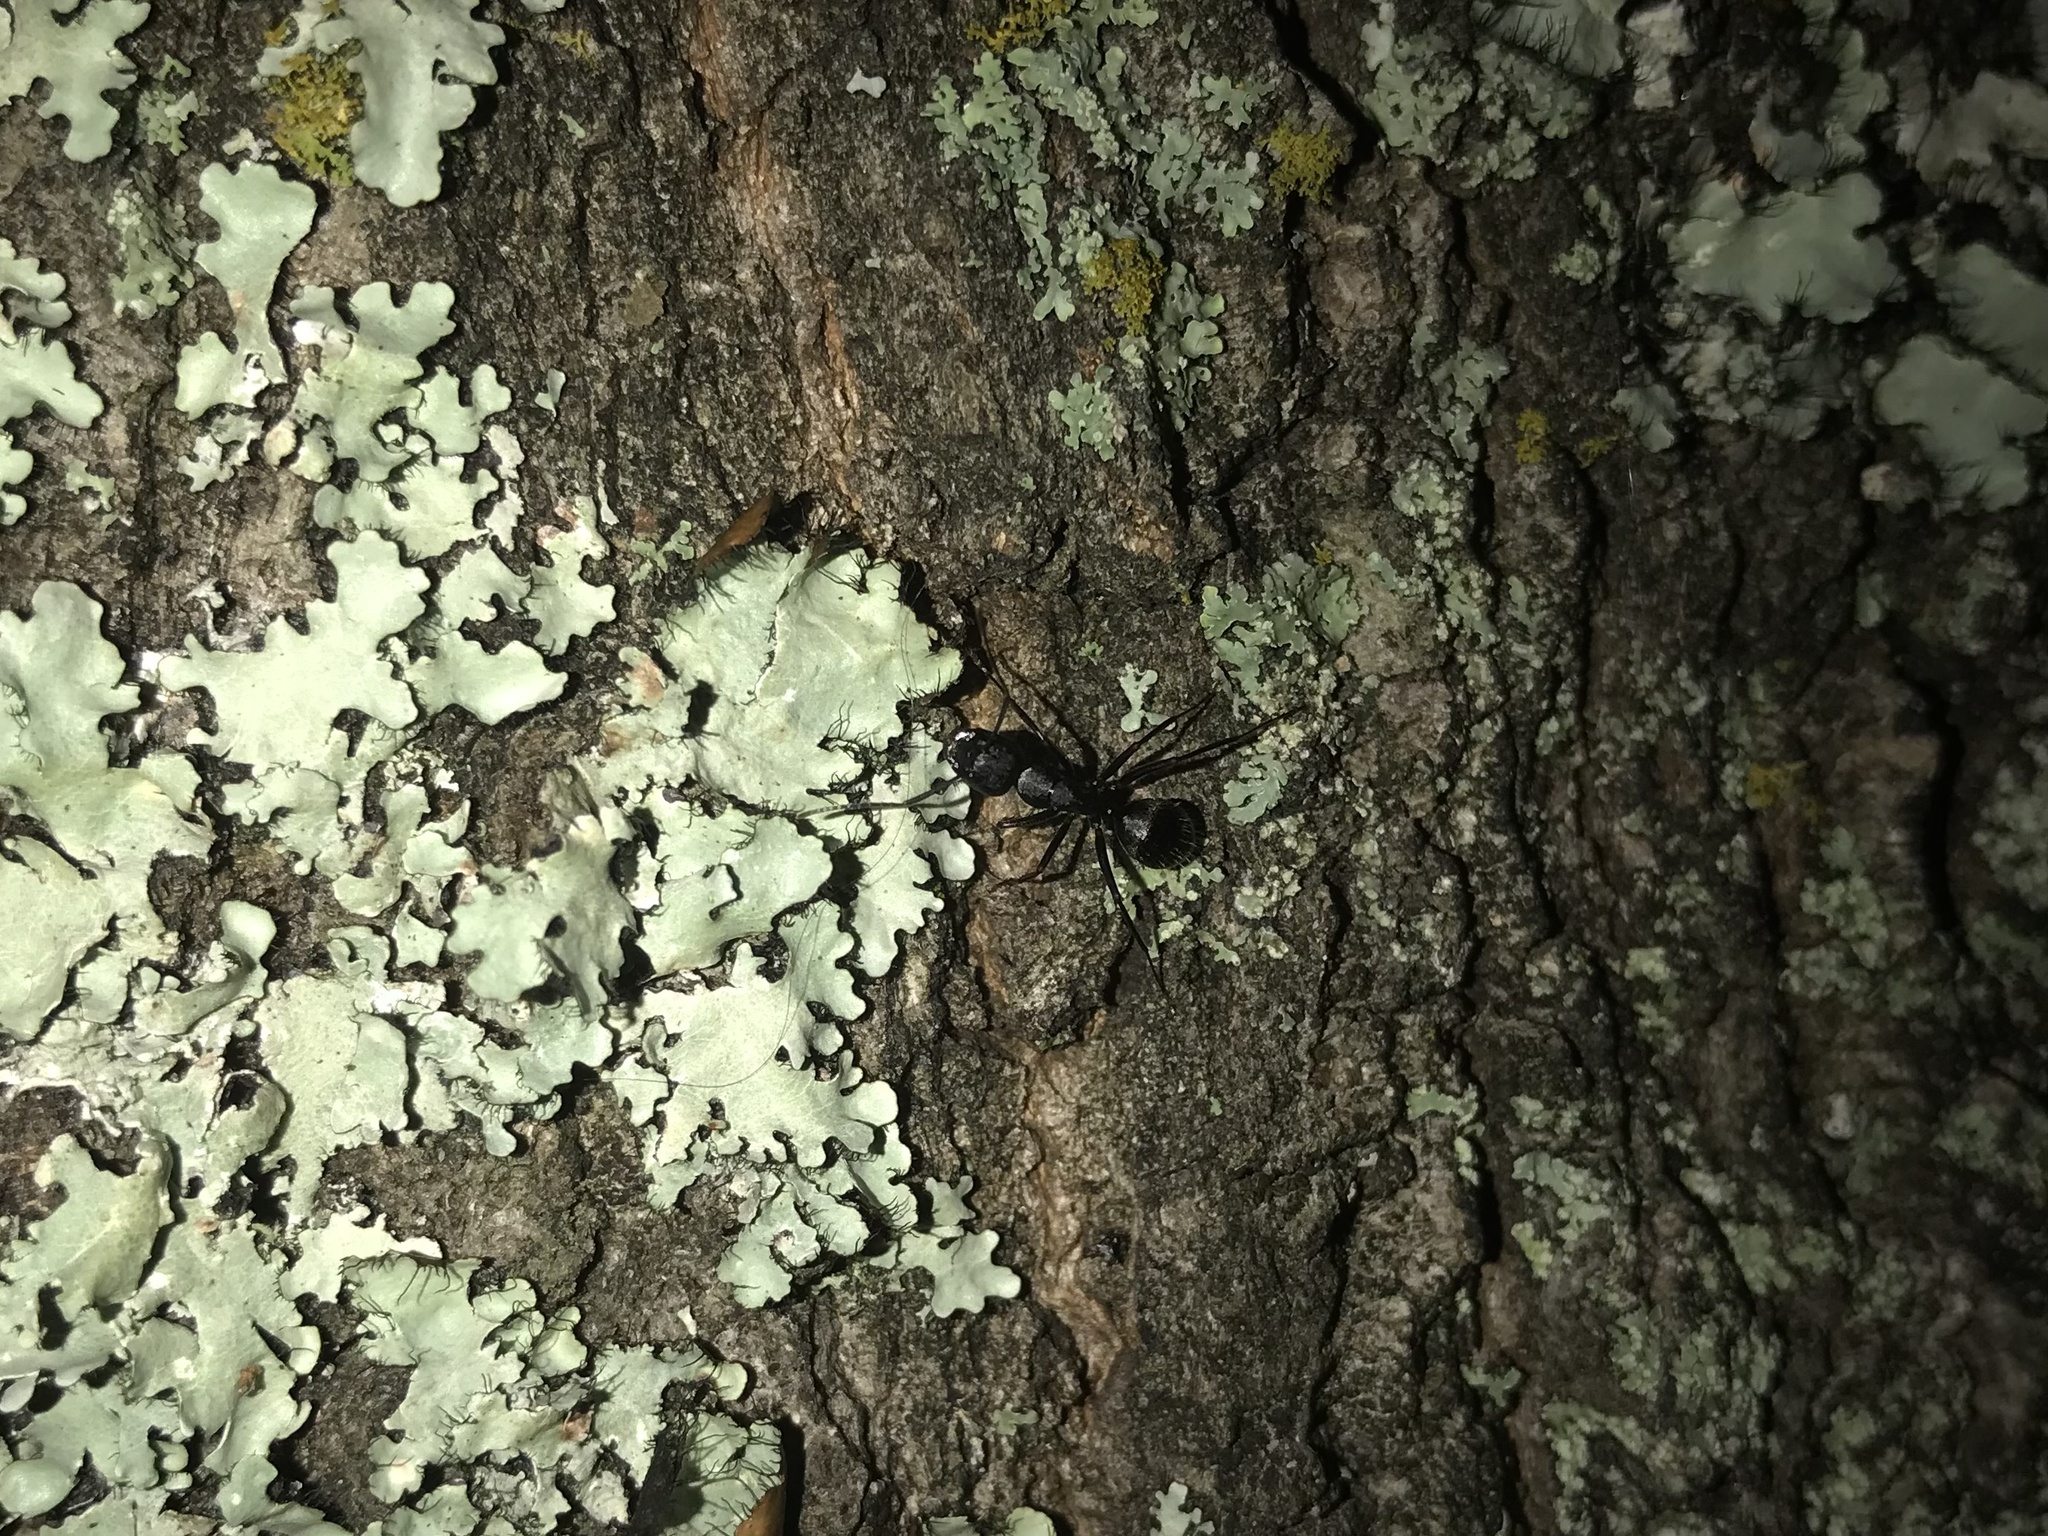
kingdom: Animalia
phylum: Arthropoda
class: Insecta
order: Hymenoptera
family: Formicidae
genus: Camponotus
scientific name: Camponotus pennsylvanicus
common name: Black carpenter ant
